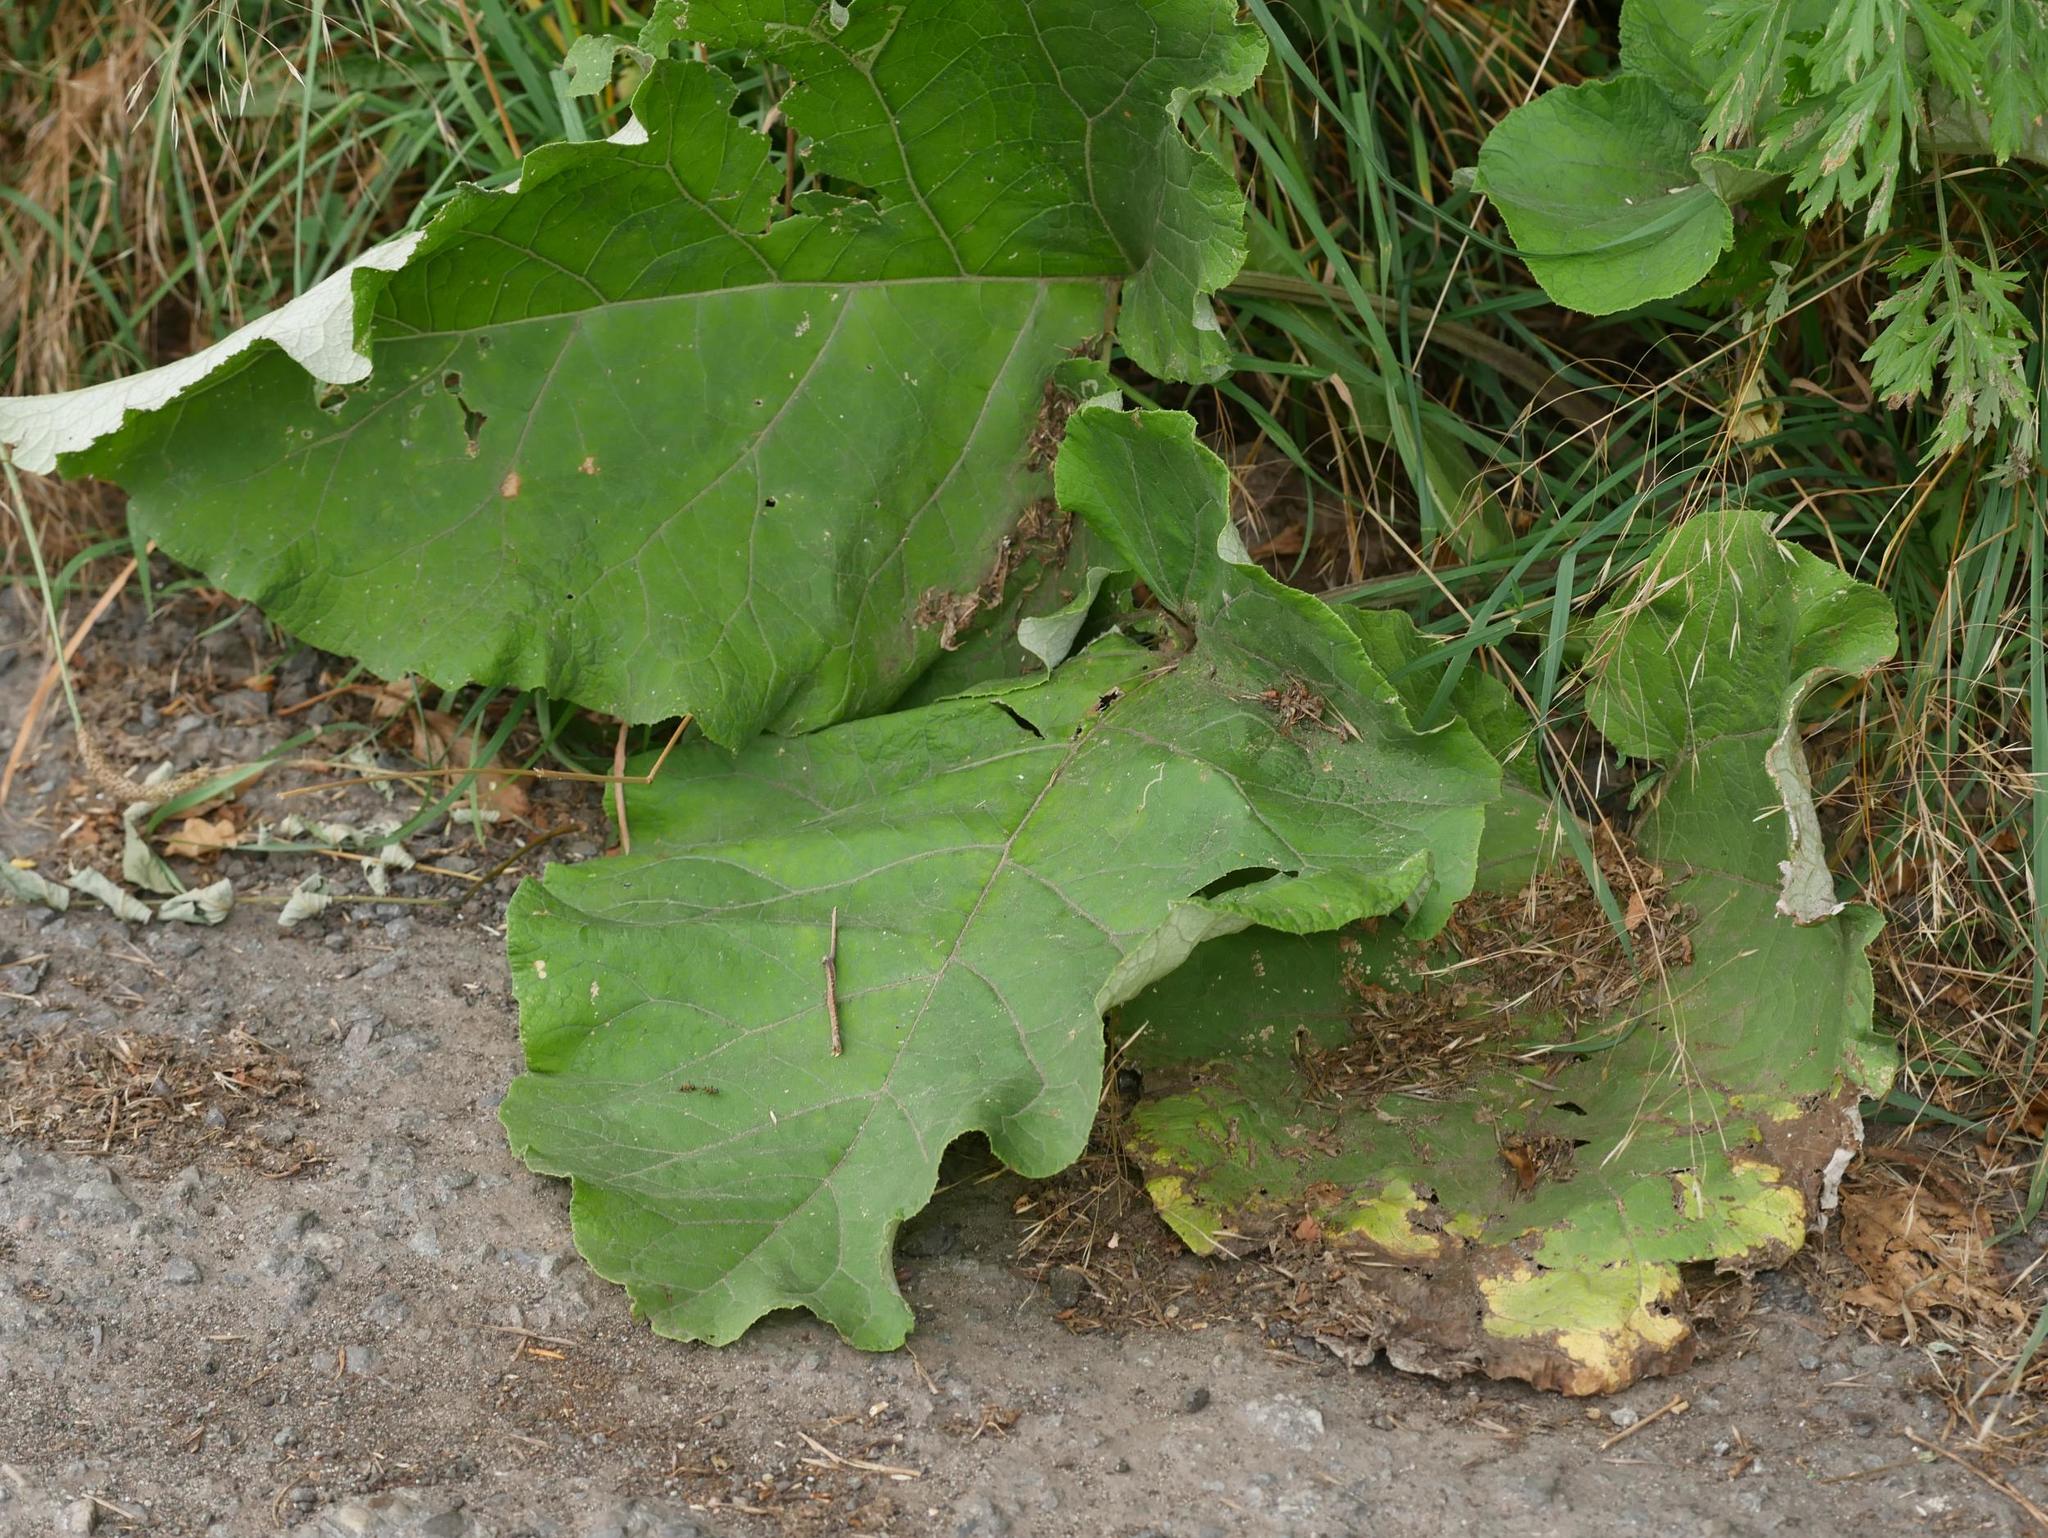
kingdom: Plantae
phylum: Tracheophyta
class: Magnoliopsida
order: Asterales
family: Asteraceae
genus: Arctium
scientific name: Arctium lappa
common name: Greater burdock
